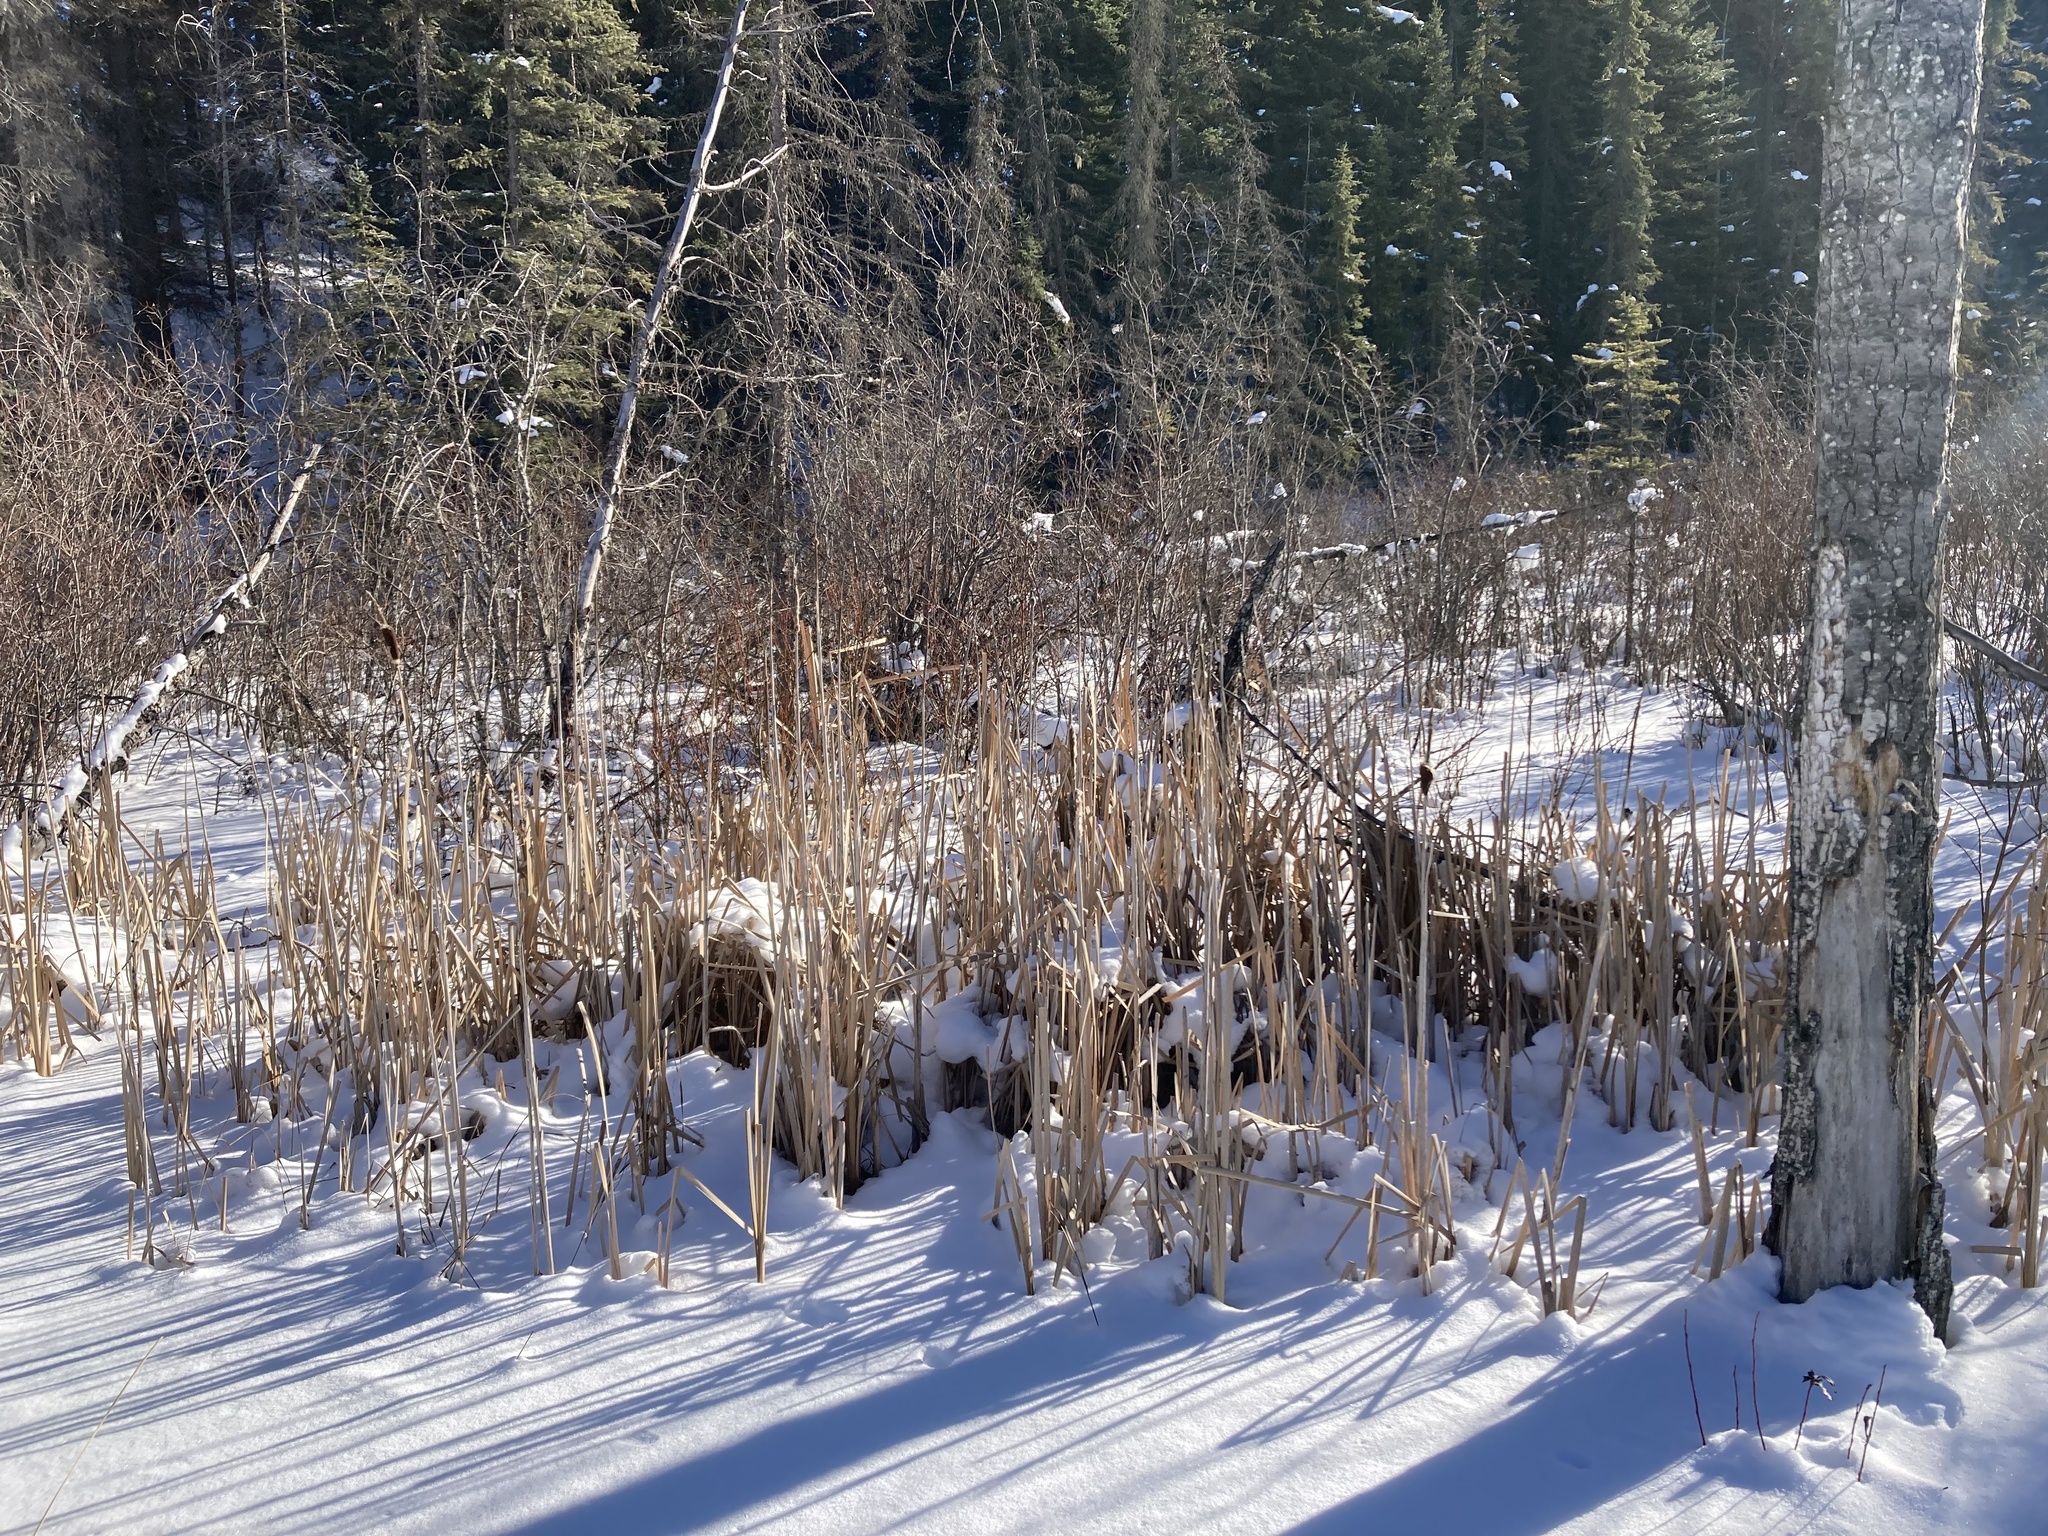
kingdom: Plantae
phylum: Tracheophyta
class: Liliopsida
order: Poales
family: Typhaceae
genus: Typha
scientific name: Typha latifolia
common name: Broadleaf cattail
